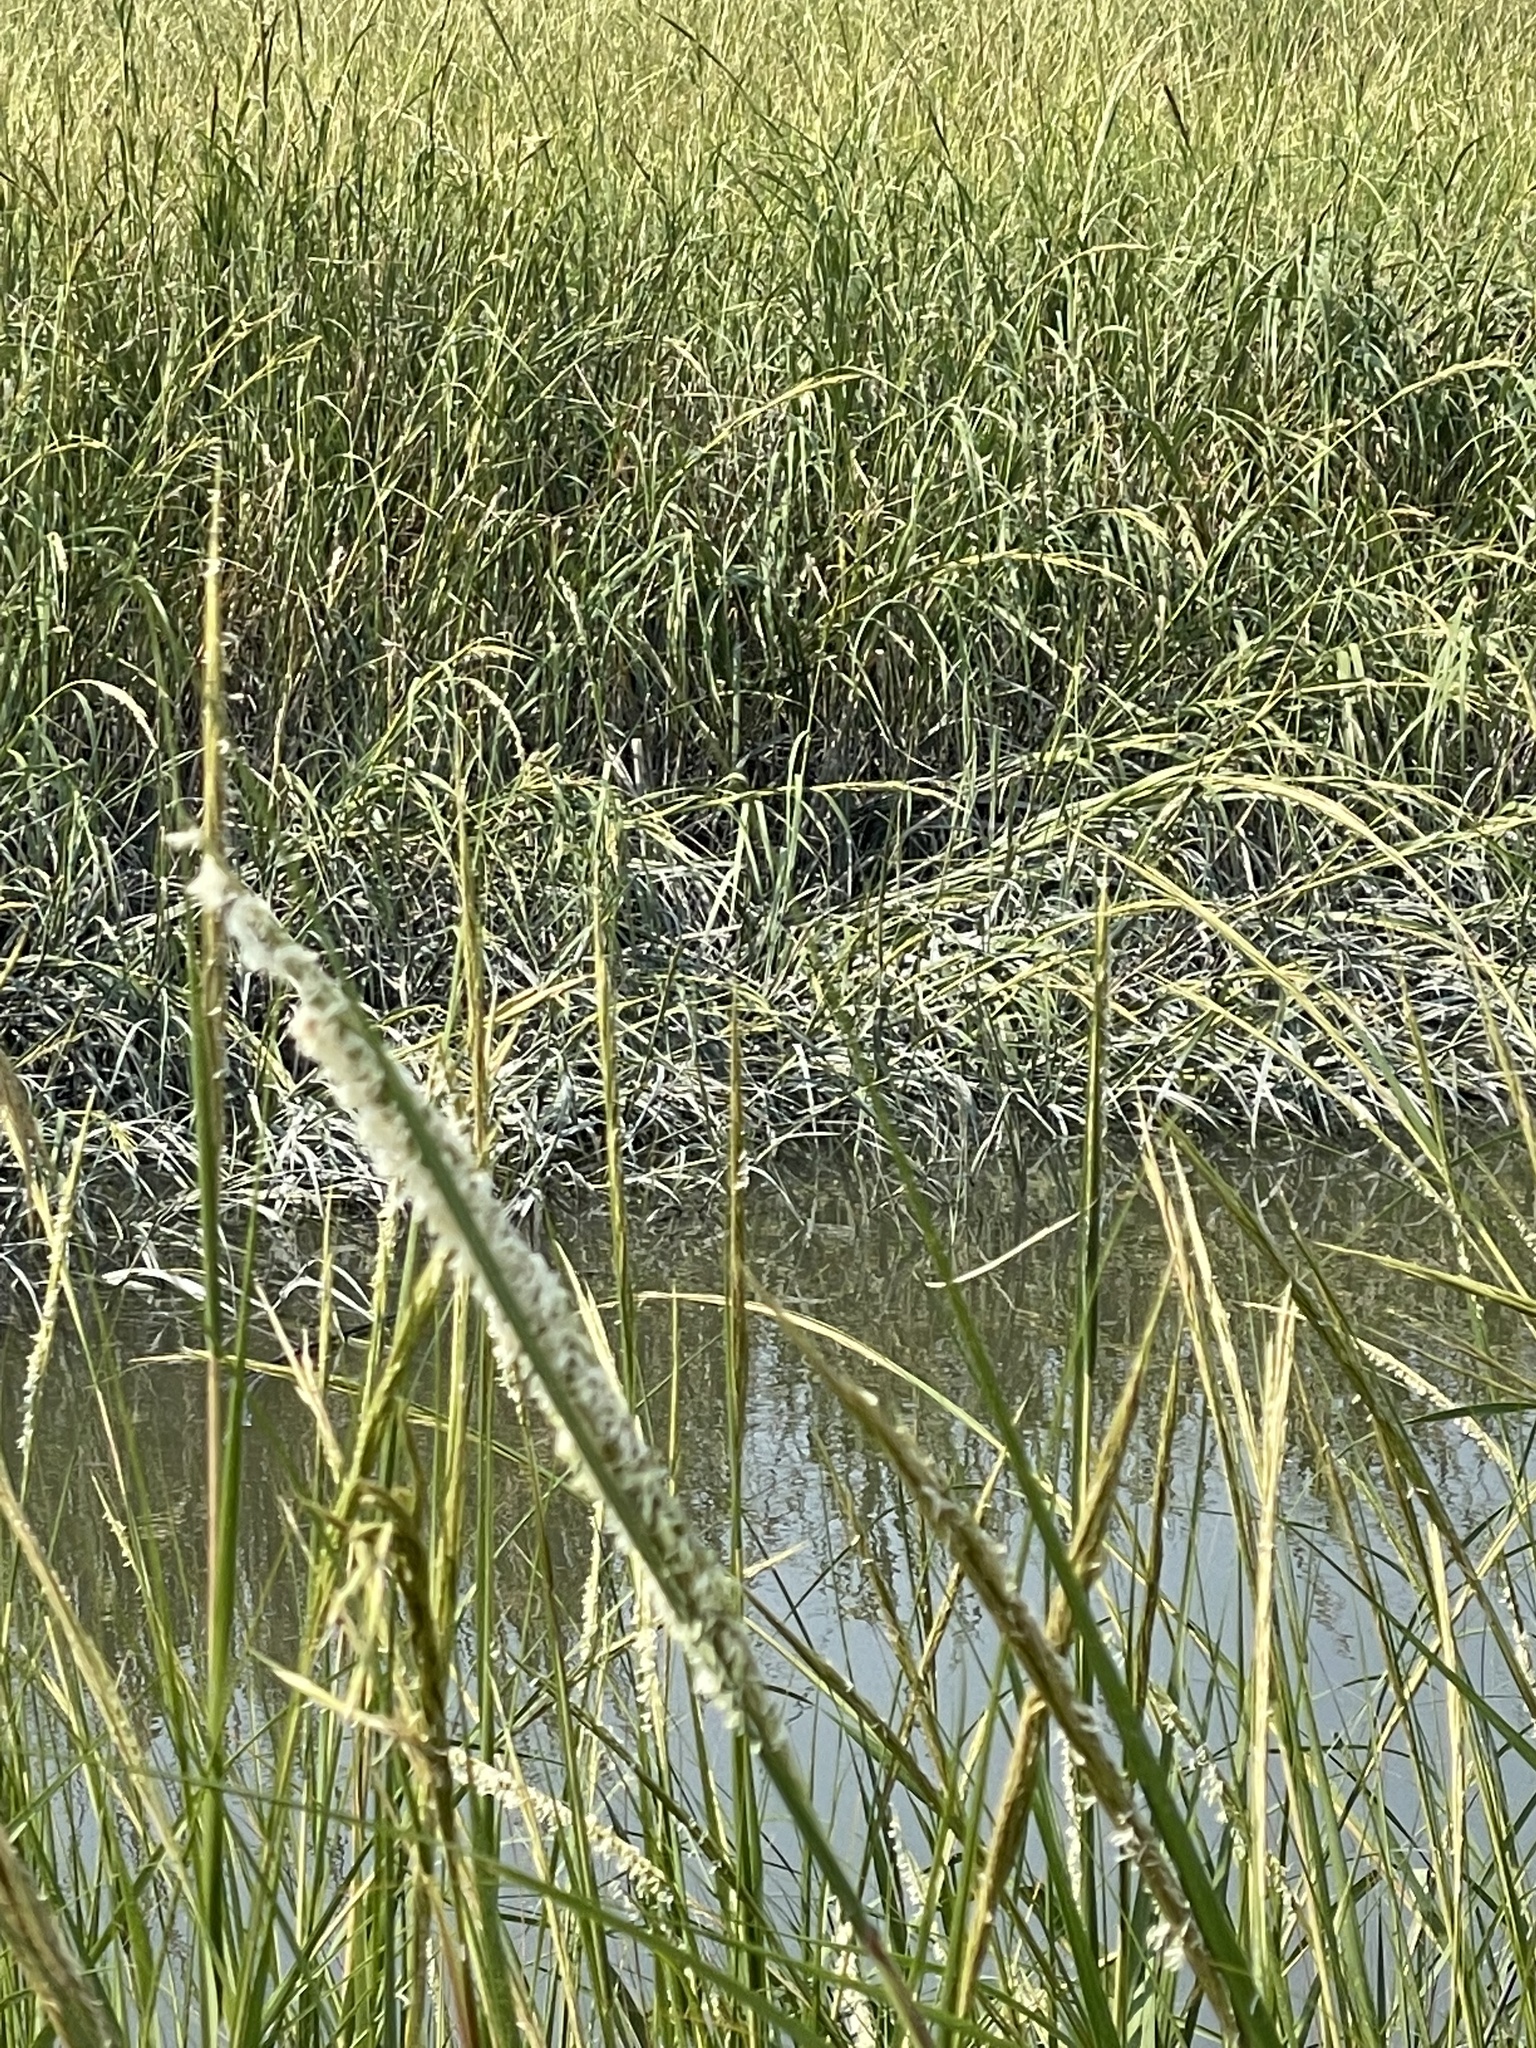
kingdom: Plantae
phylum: Tracheophyta
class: Liliopsida
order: Poales
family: Poaceae
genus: Sporobolus
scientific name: Sporobolus alterniflorus
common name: Atlantic cordgrass
